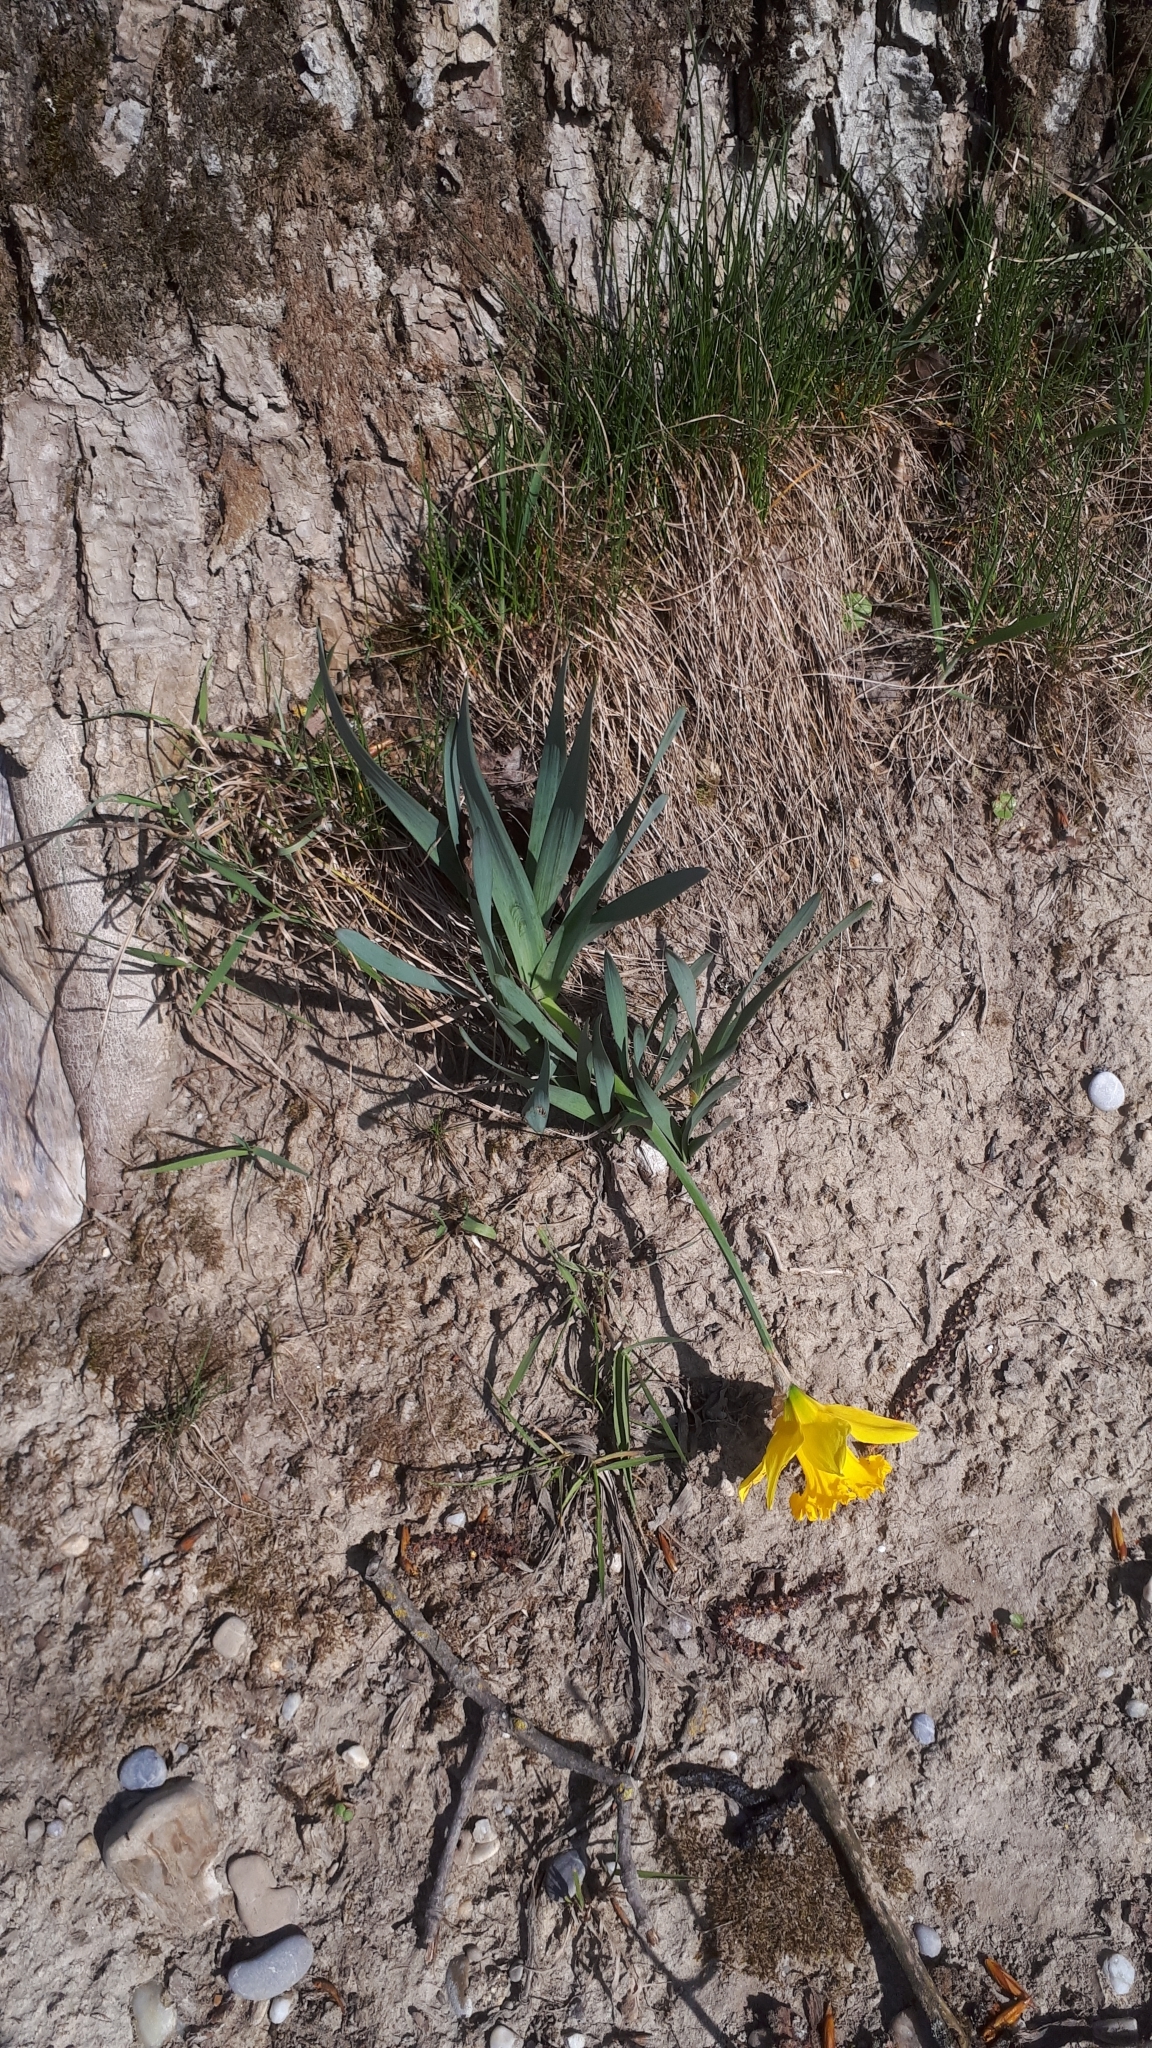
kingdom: Plantae
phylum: Tracheophyta
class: Liliopsida
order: Asparagales
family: Amaryllidaceae
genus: Narcissus
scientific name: Narcissus pseudonarcissus
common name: Daffodil
